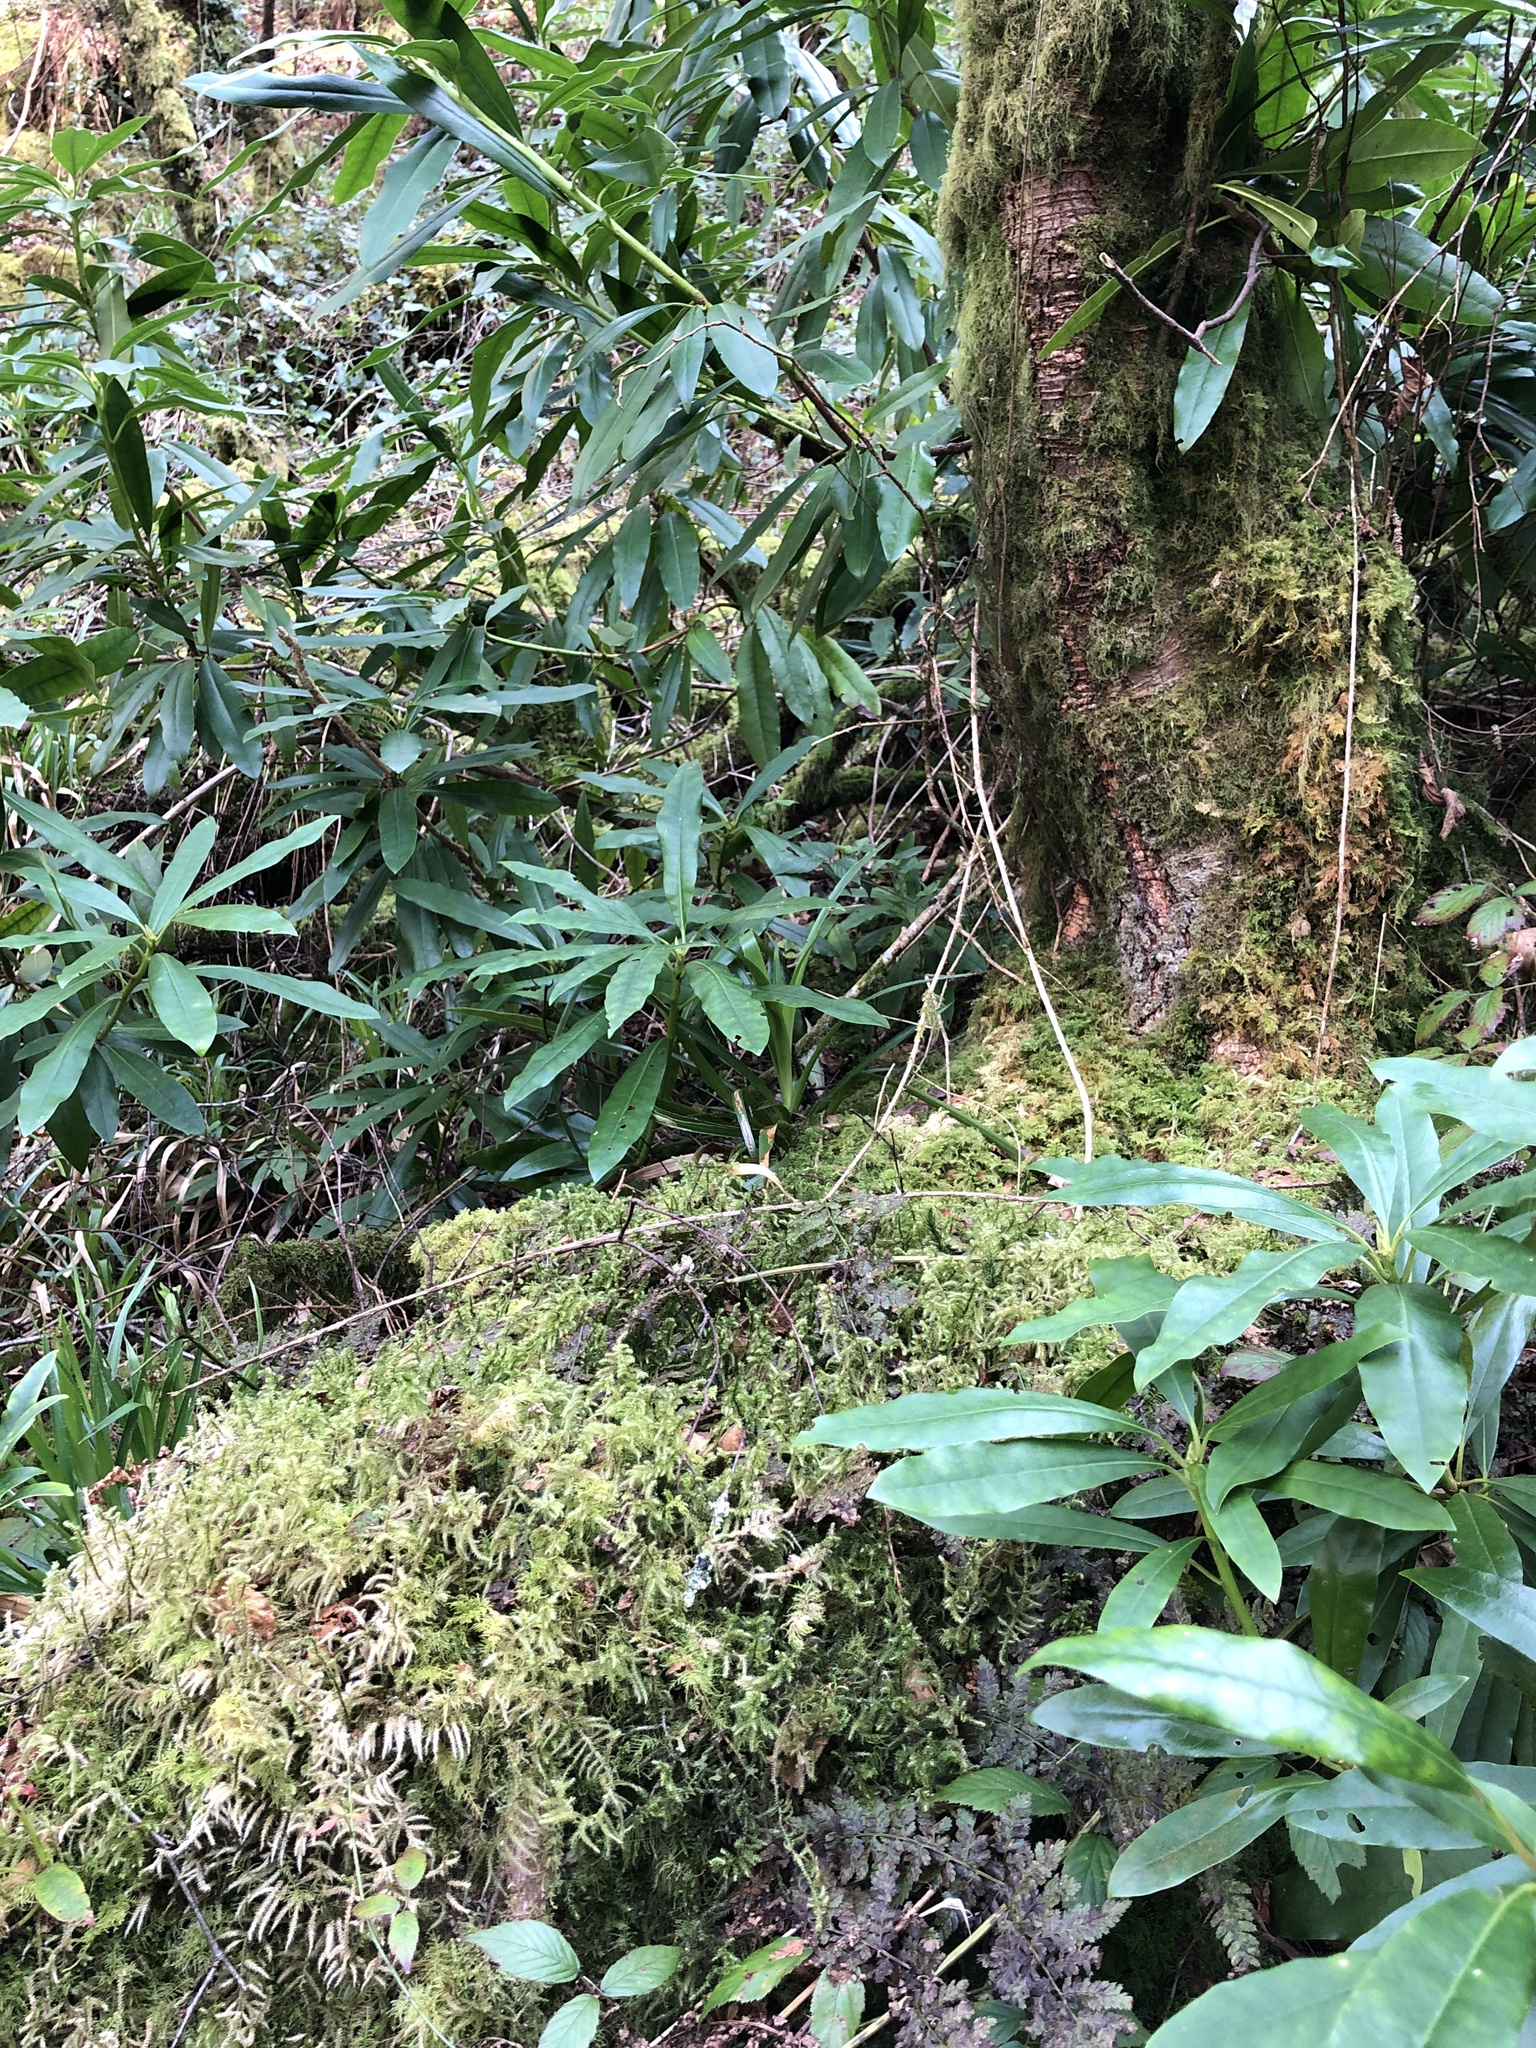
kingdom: Plantae
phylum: Bryophyta
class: Bryopsida
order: Hypnales
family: Hylocomiaceae
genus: Rhytidiadelphus
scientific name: Rhytidiadelphus loreus
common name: Lanky moss
